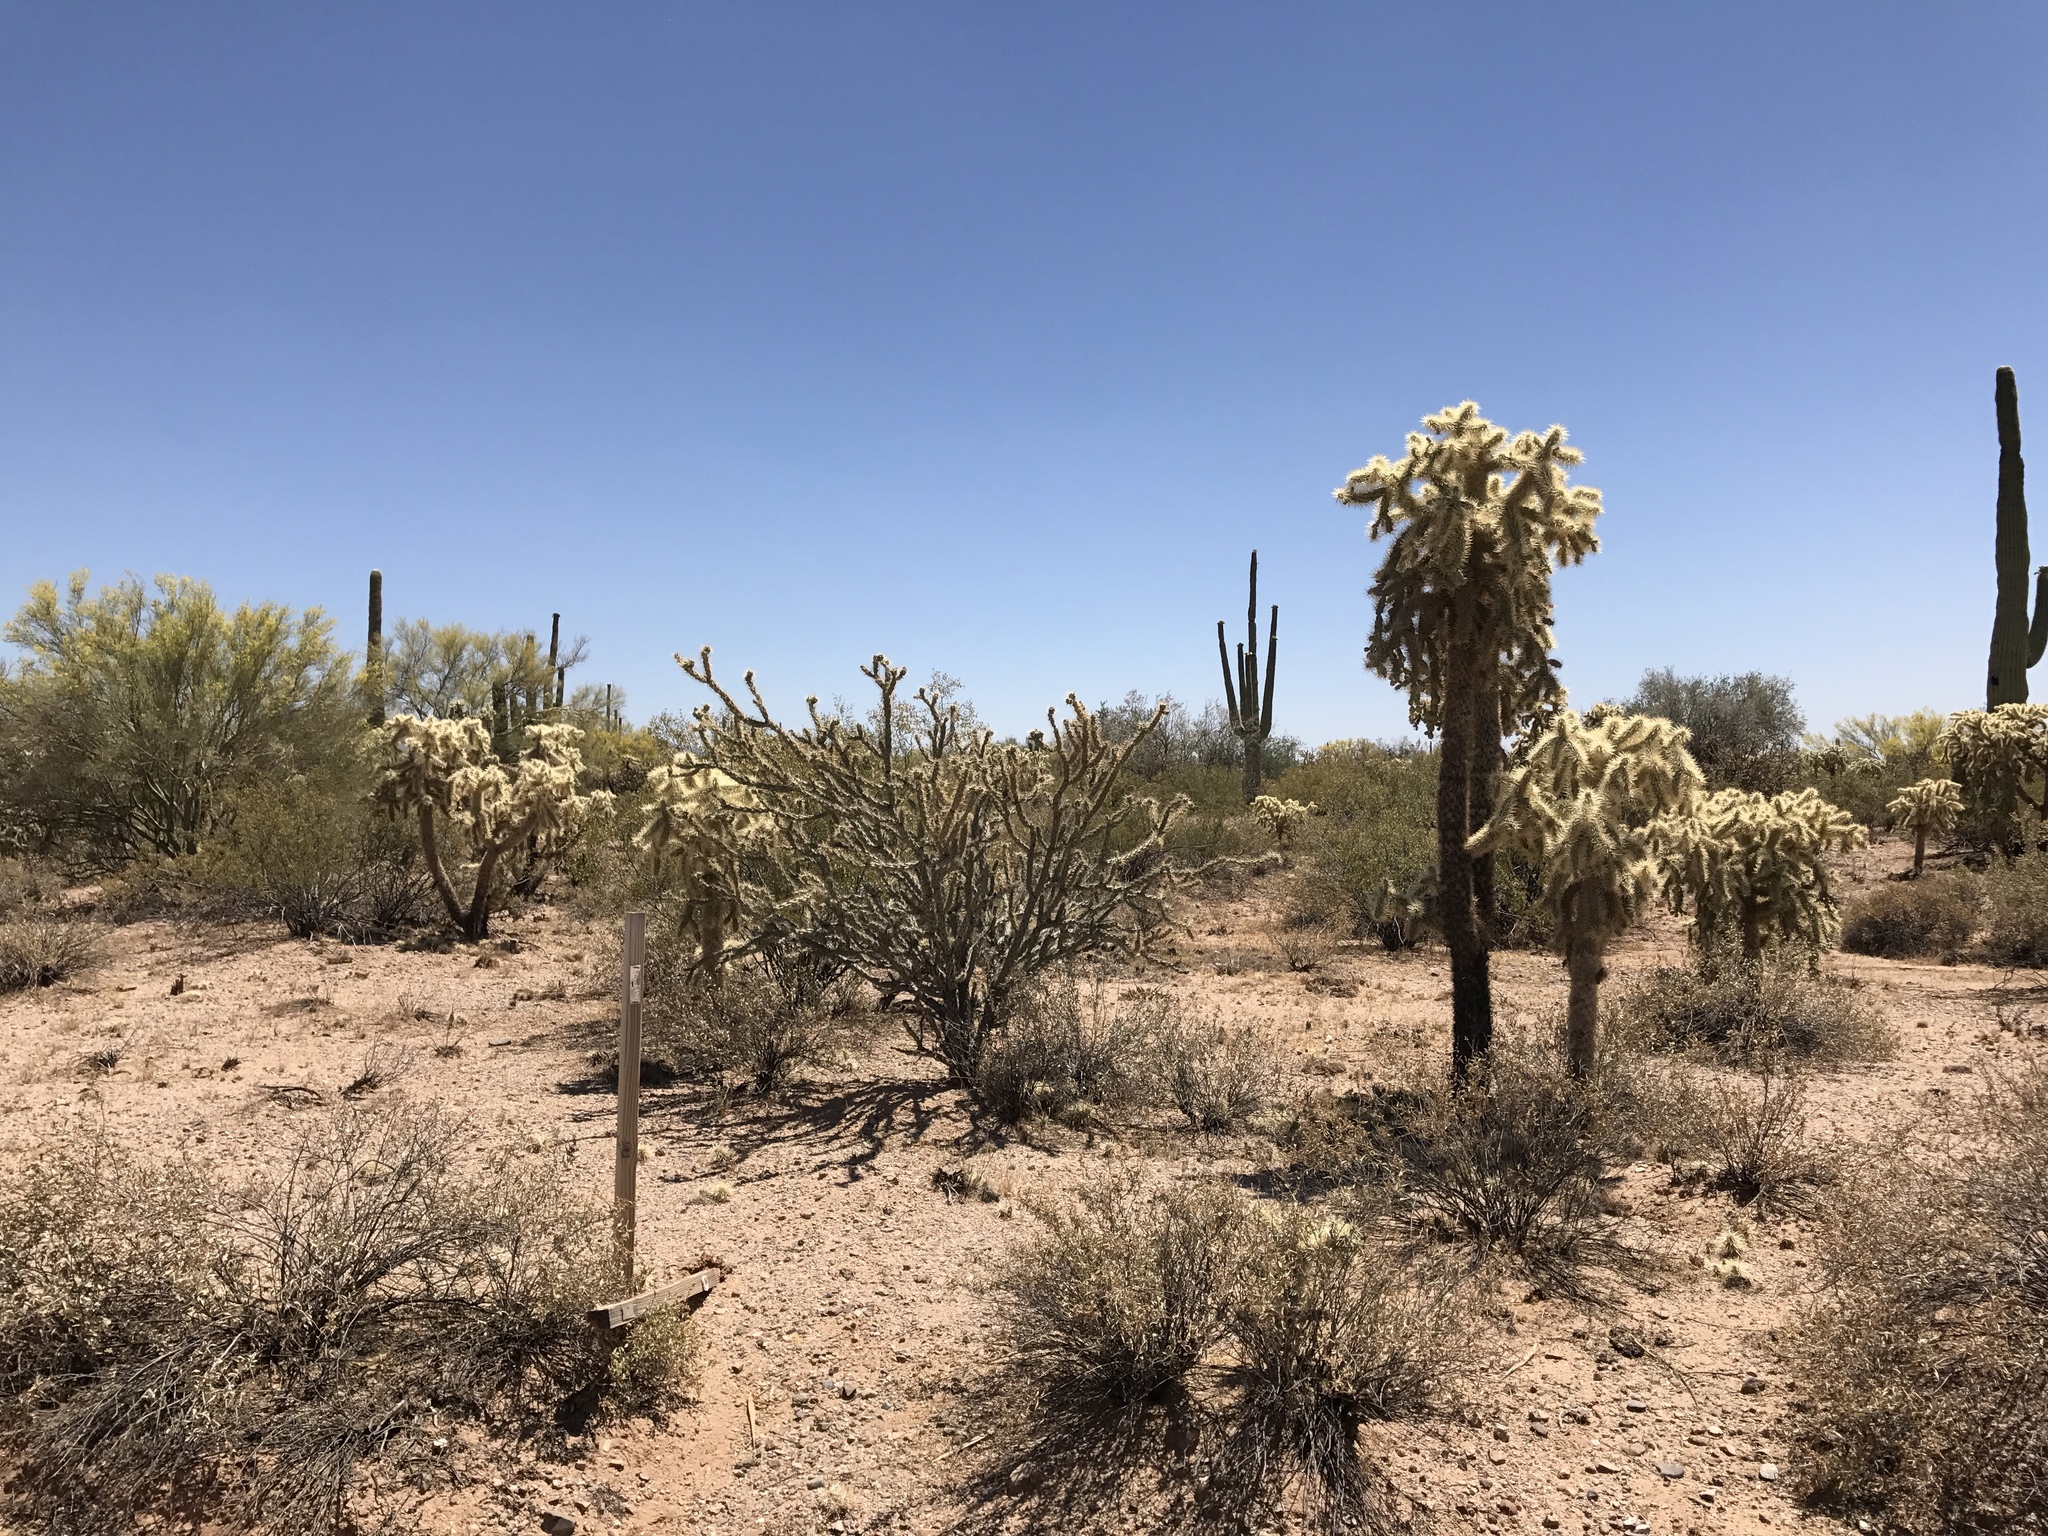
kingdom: Plantae
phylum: Tracheophyta
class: Magnoliopsida
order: Caryophyllales
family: Cactaceae
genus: Cylindropuntia
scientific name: Cylindropuntia fulgida
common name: Jumping cholla
